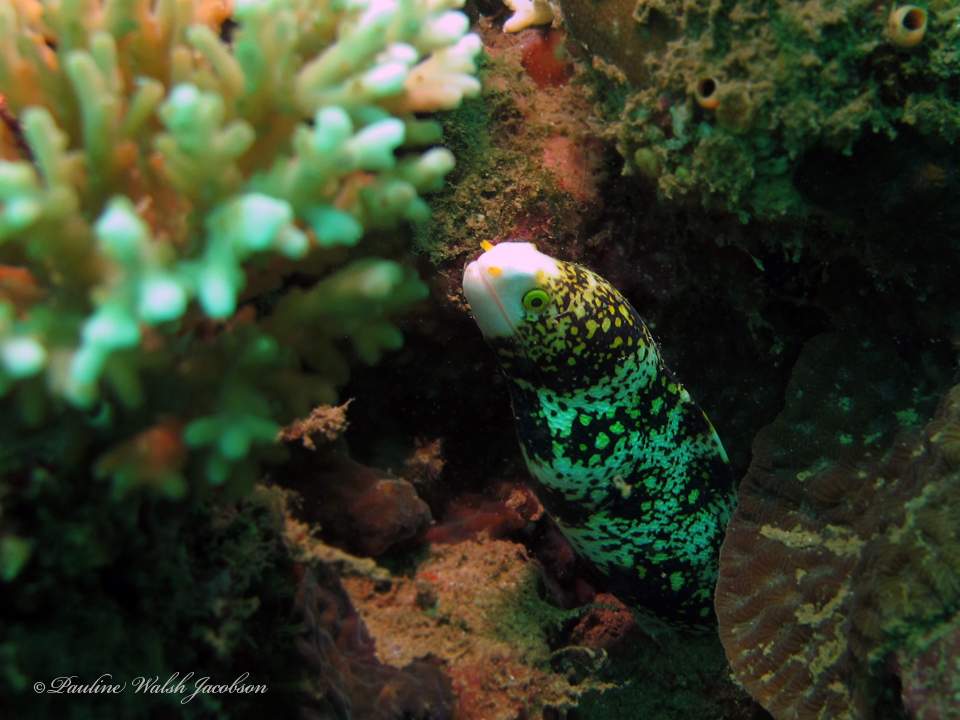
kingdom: Animalia
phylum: Chordata
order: Anguilliformes
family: Muraenidae
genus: Echidna
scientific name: Echidna nebulosa
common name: Snowflake moray
